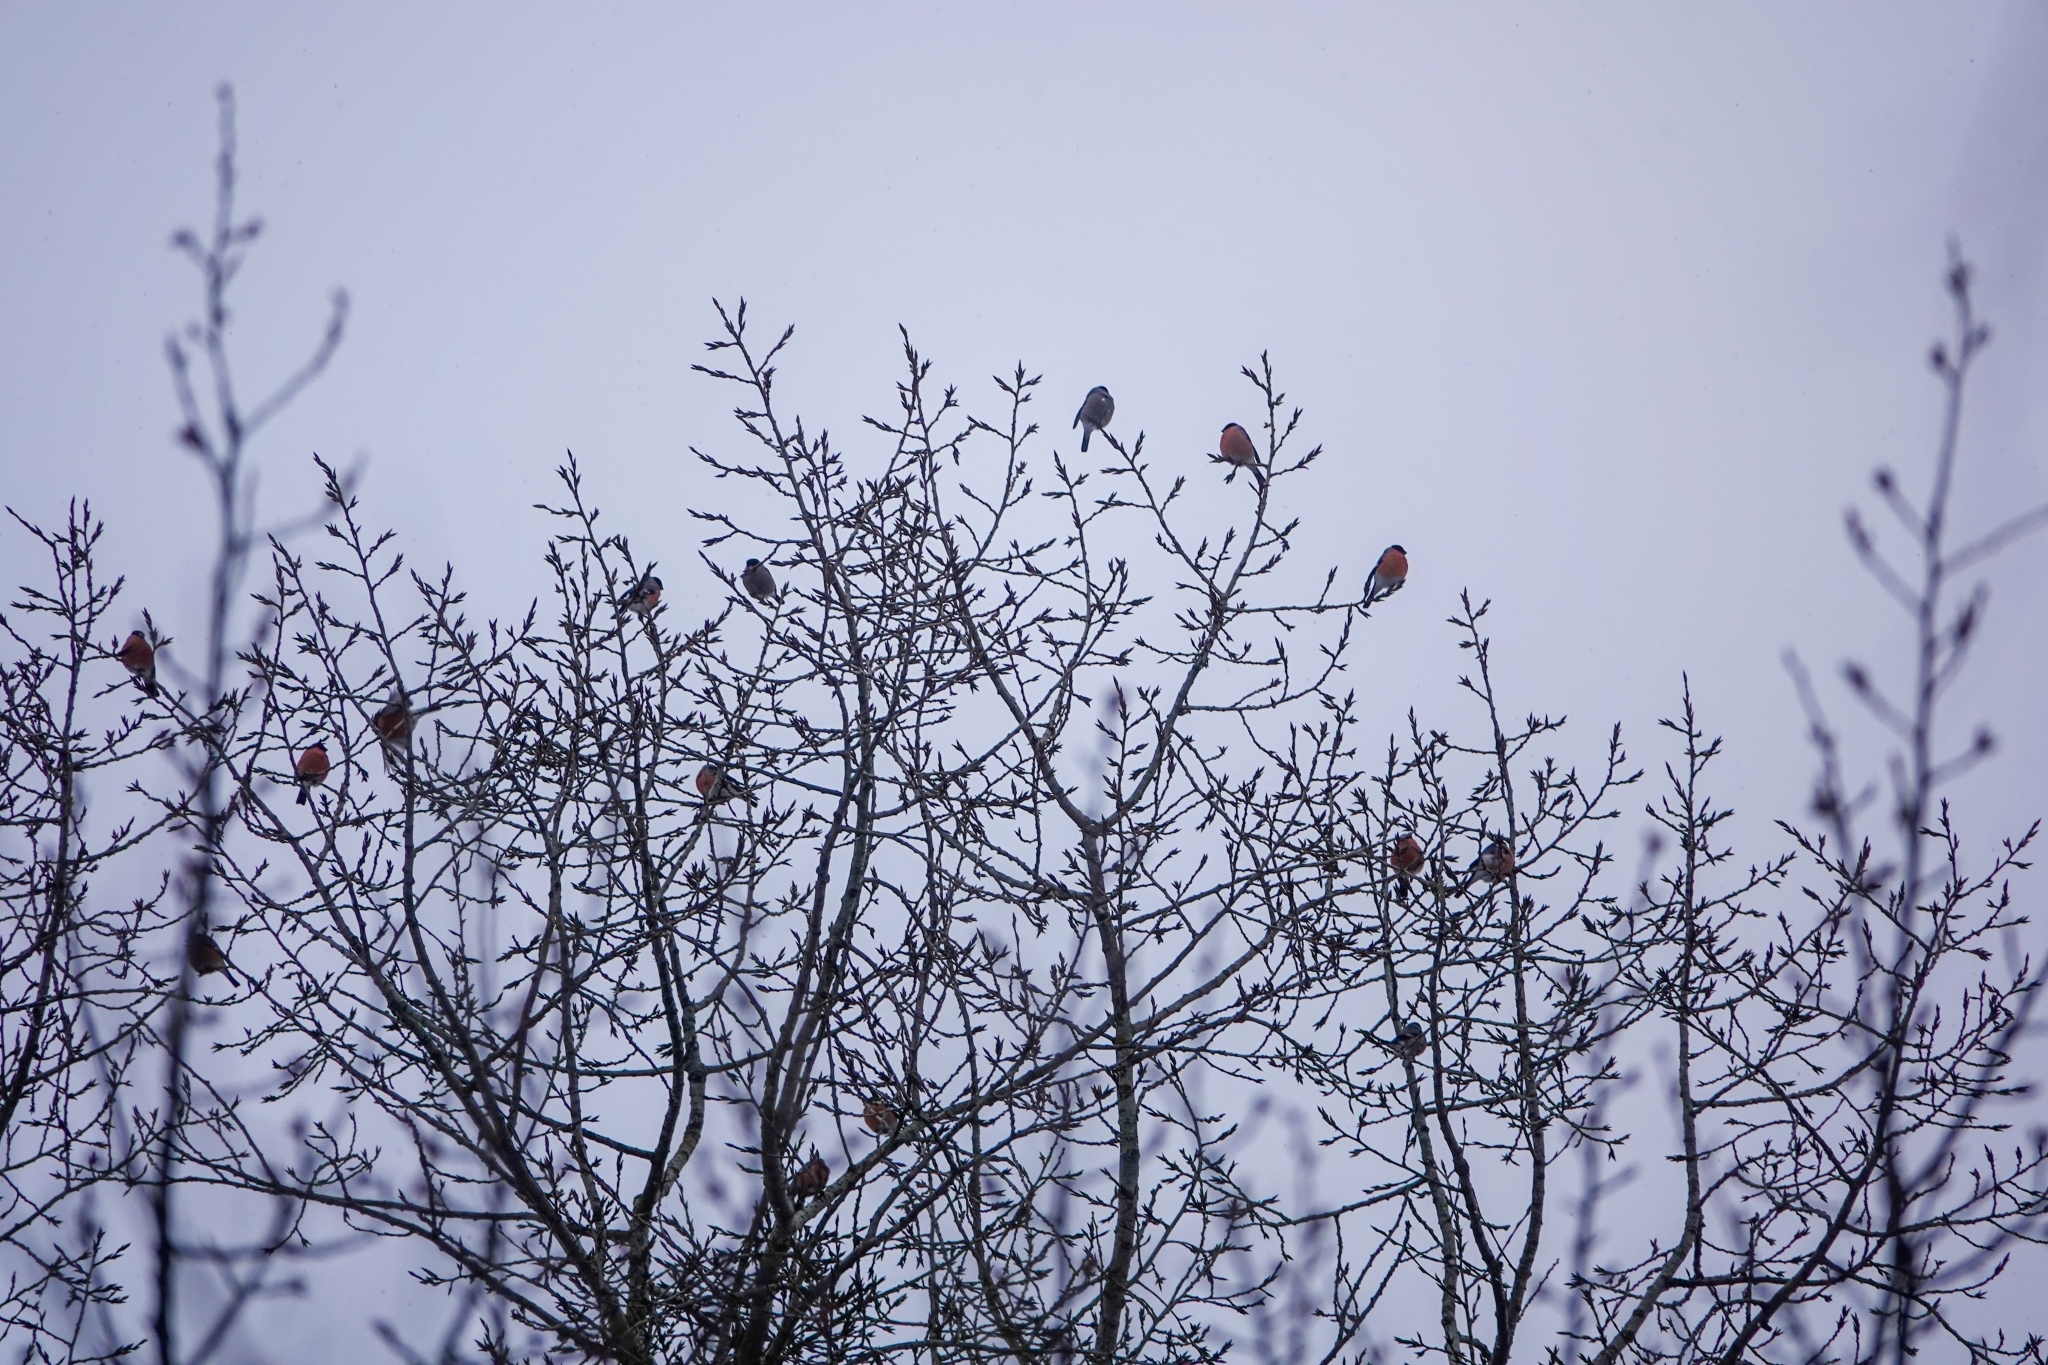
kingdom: Animalia
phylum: Chordata
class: Aves
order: Passeriformes
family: Fringillidae
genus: Pyrrhula
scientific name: Pyrrhula pyrrhula
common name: Eurasian bullfinch
